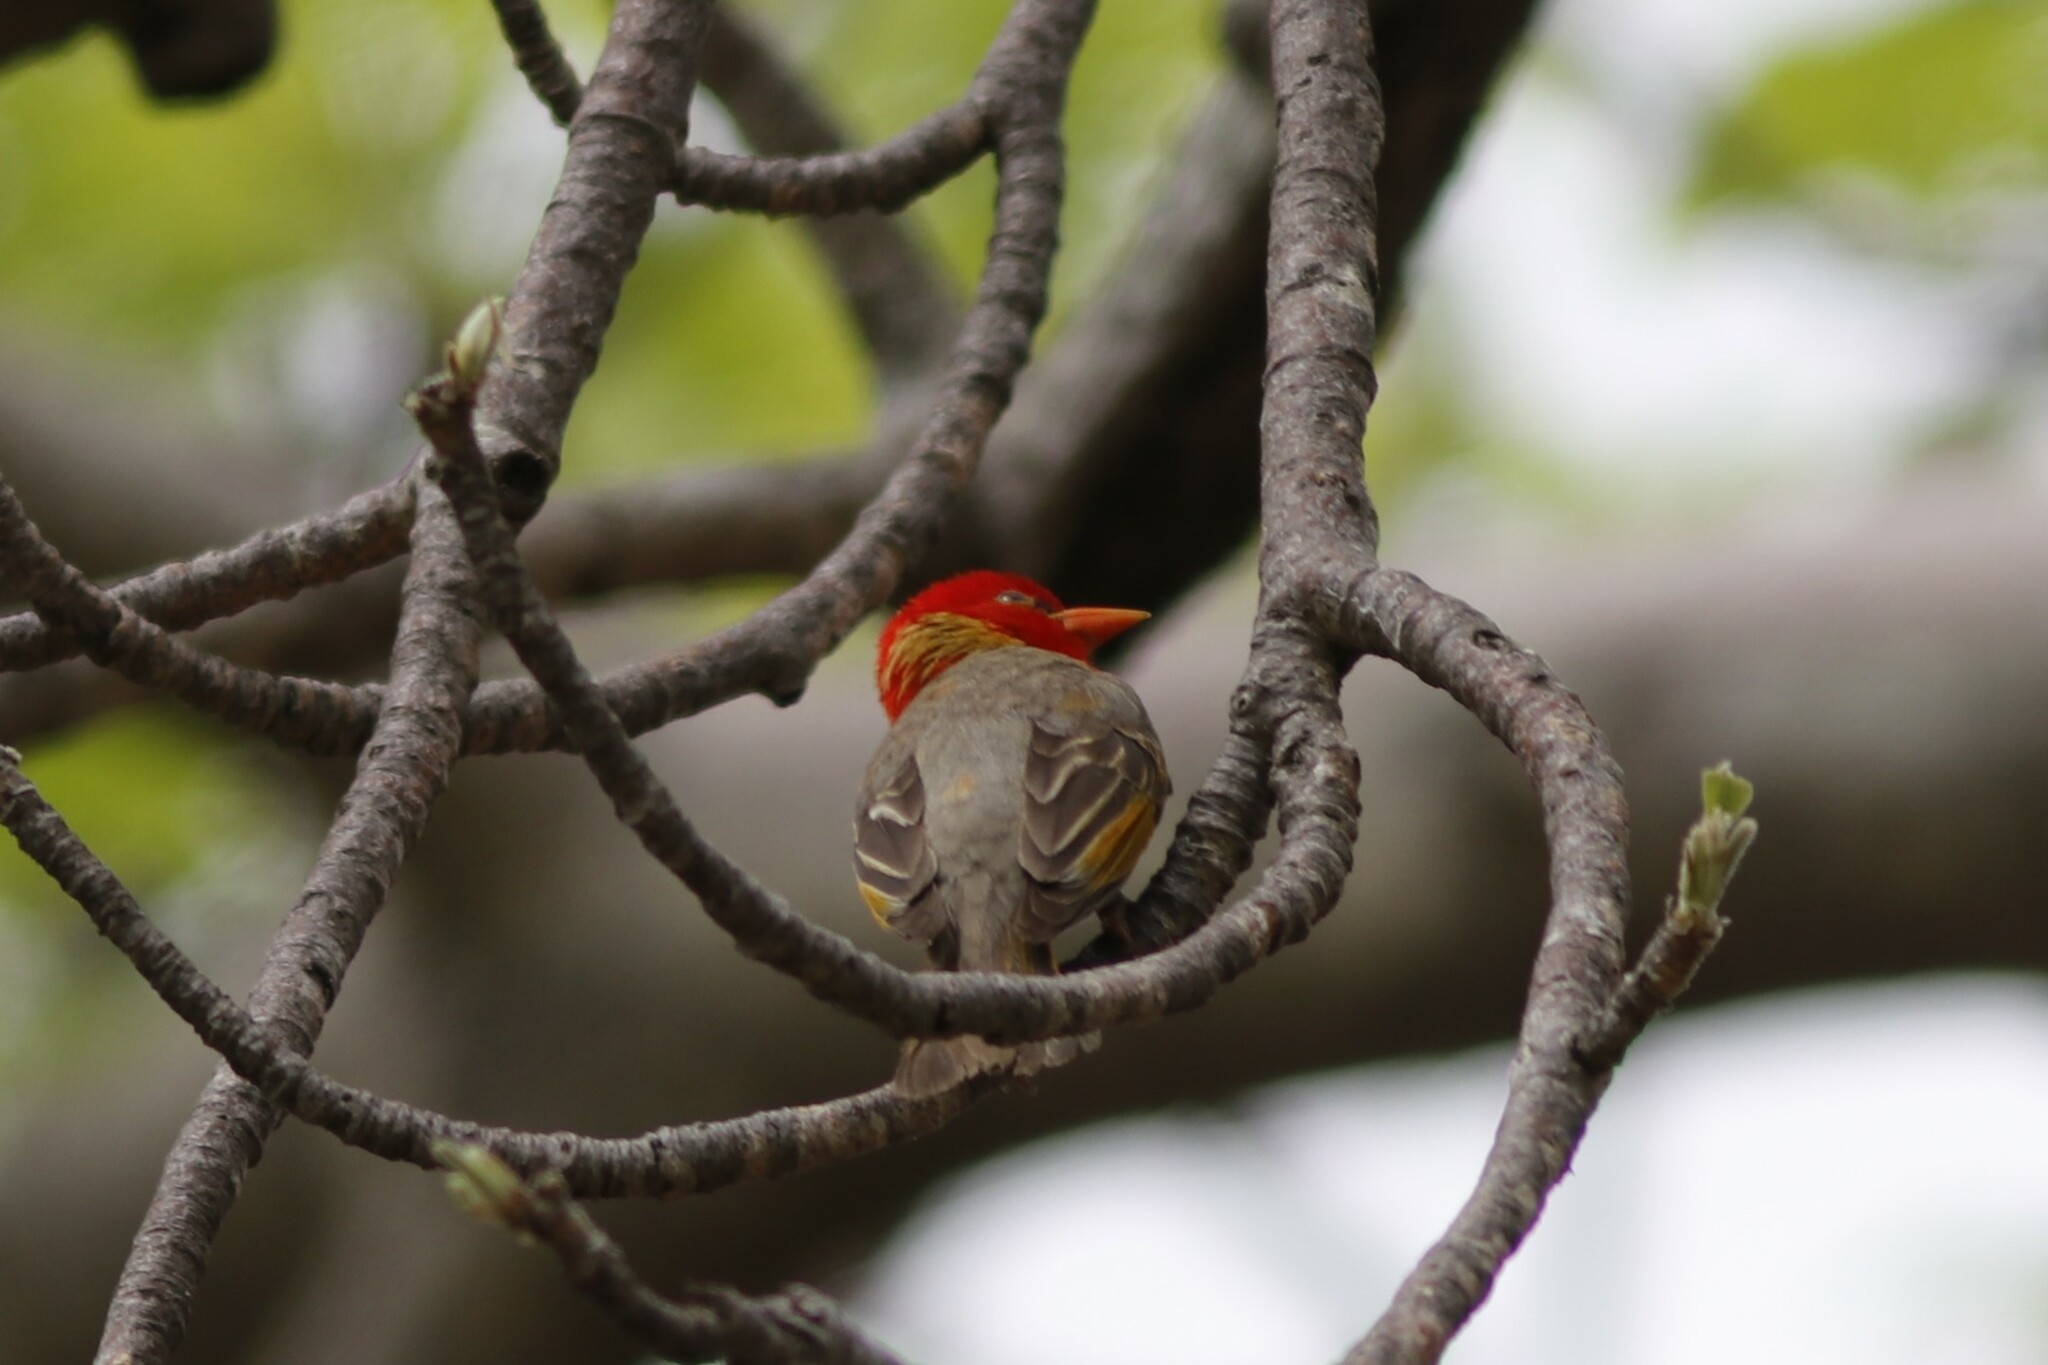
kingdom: Animalia
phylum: Chordata
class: Aves
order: Passeriformes
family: Ploceidae
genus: Anaplectes
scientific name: Anaplectes rubriceps
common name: Red-headed weaver
